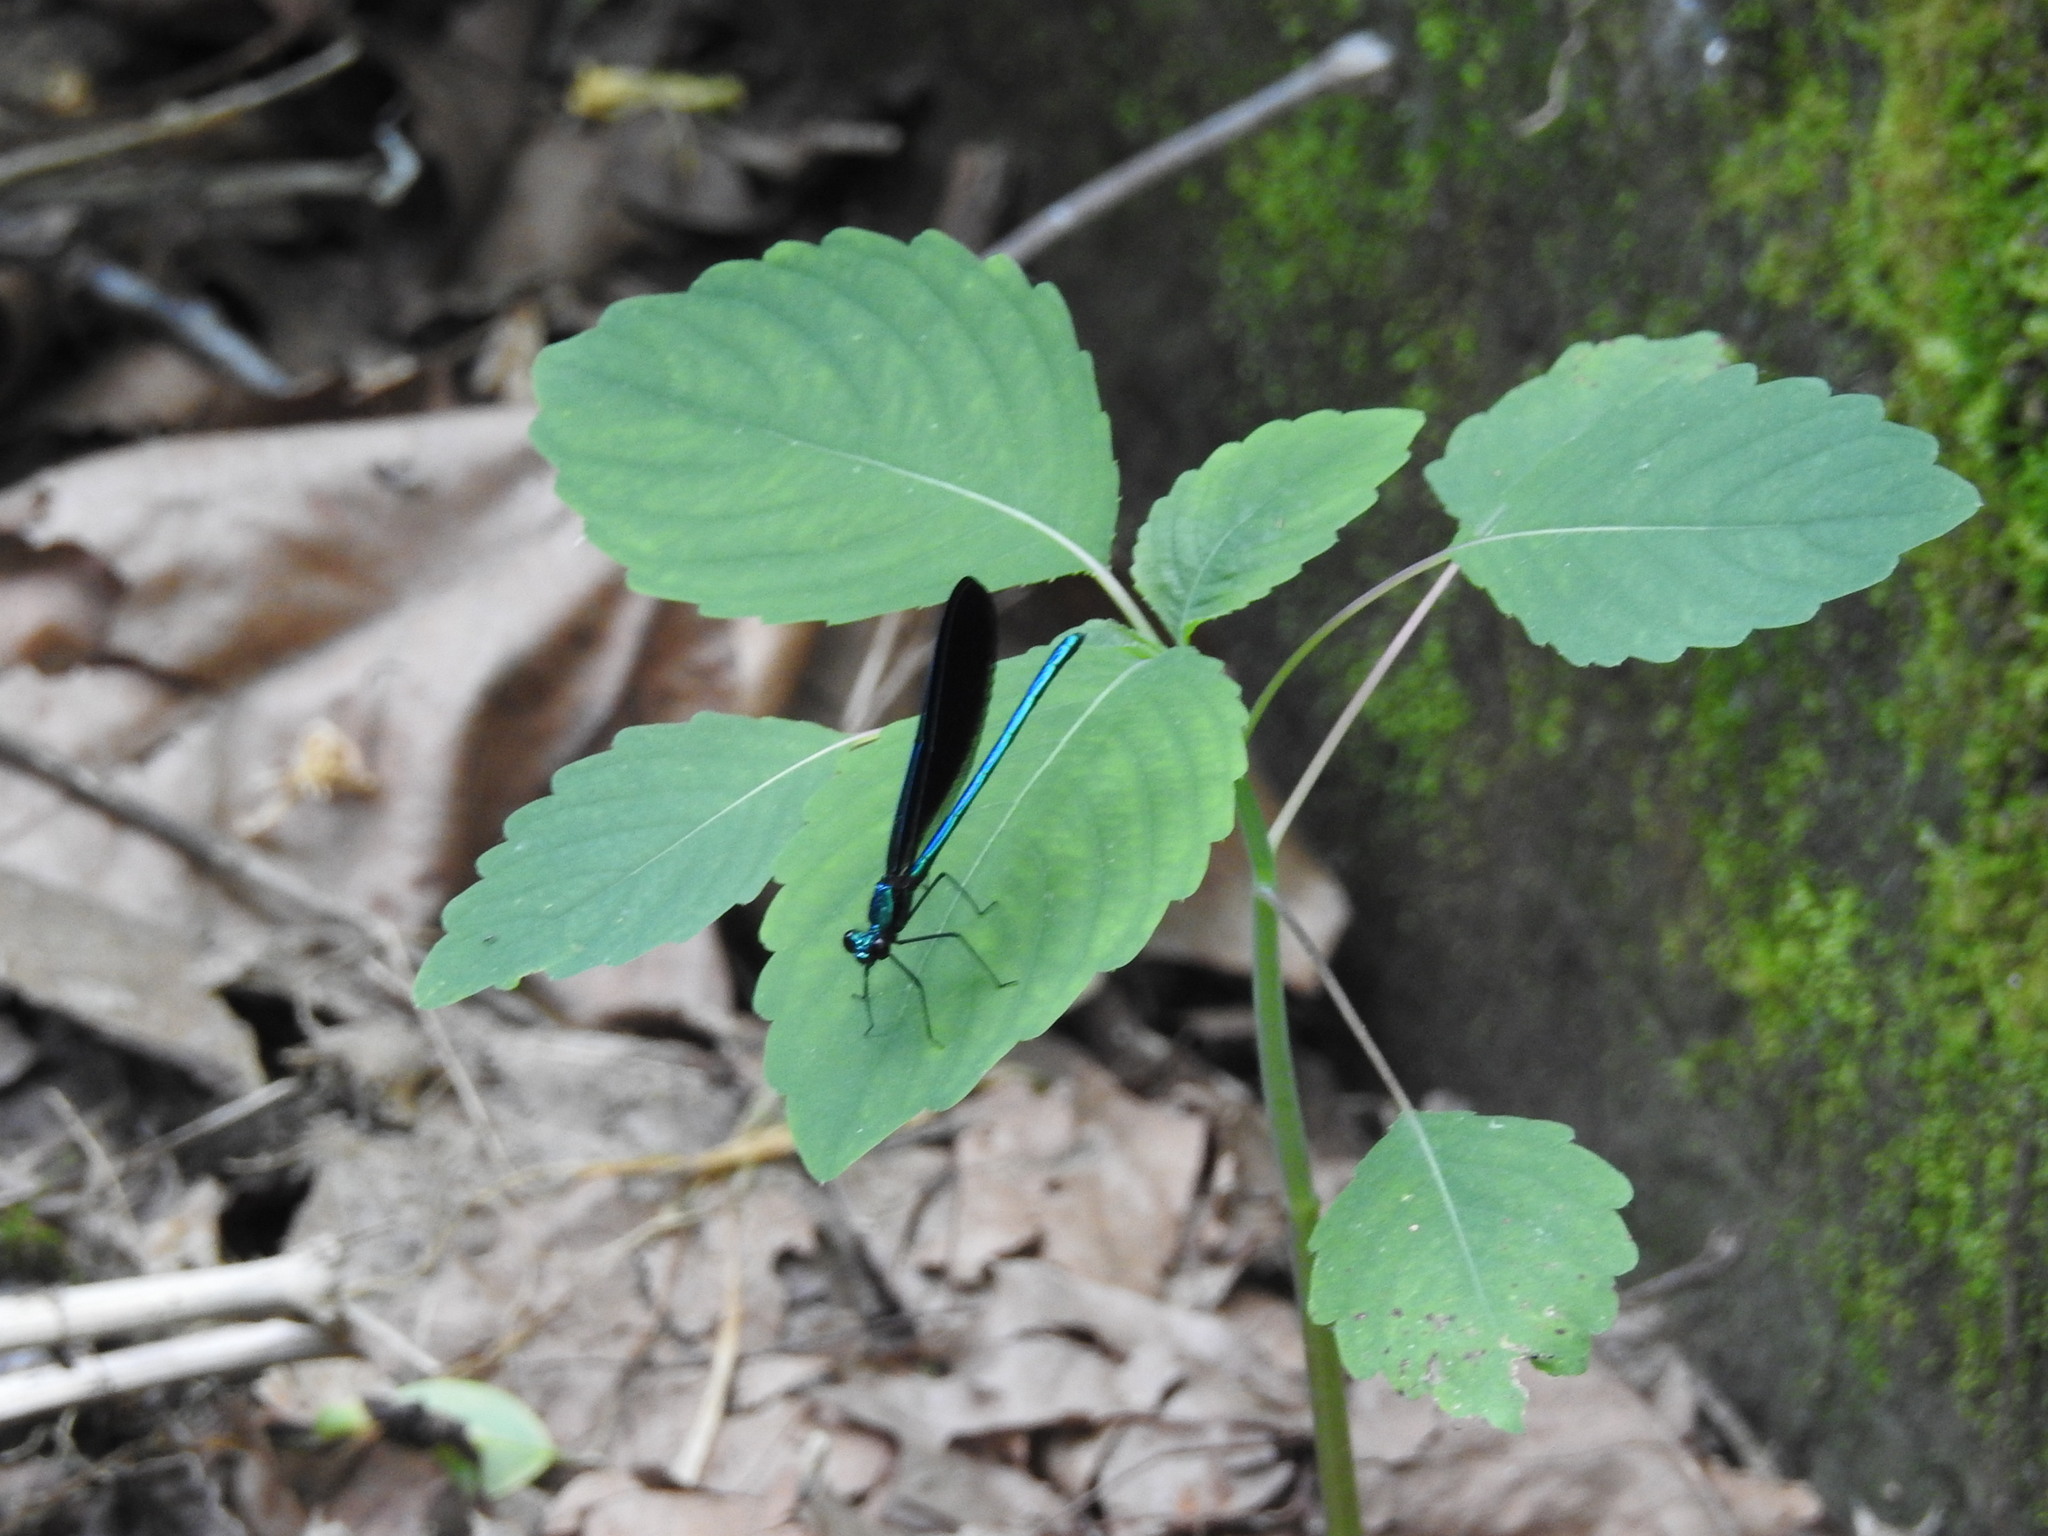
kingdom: Animalia
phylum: Arthropoda
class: Insecta
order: Odonata
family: Calopterygidae
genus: Calopteryx
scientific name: Calopteryx maculata
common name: Ebony jewelwing
